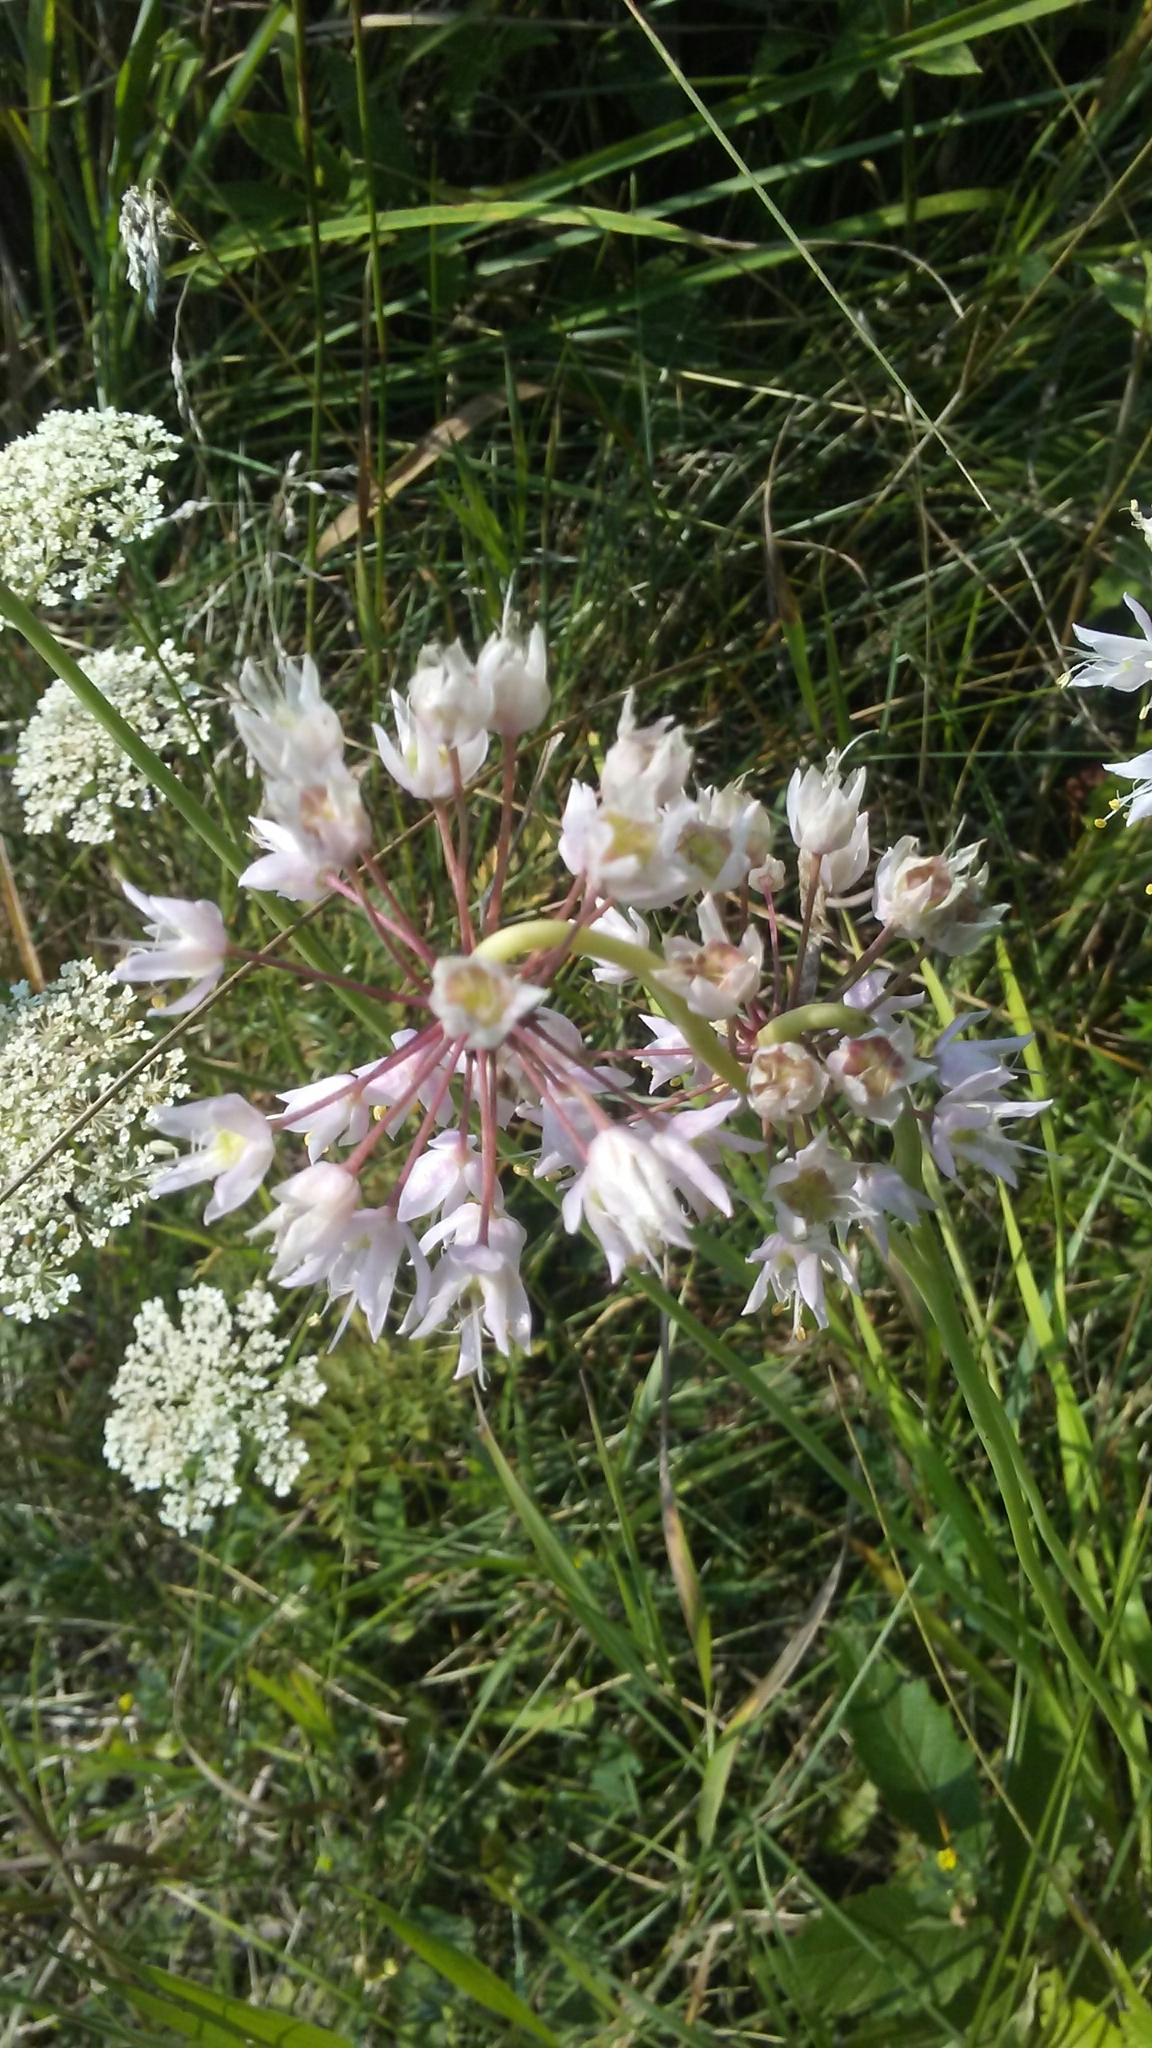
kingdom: Plantae
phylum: Tracheophyta
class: Liliopsida
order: Asparagales
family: Amaryllidaceae
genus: Allium
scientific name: Allium cernuum
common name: Nodding onion
